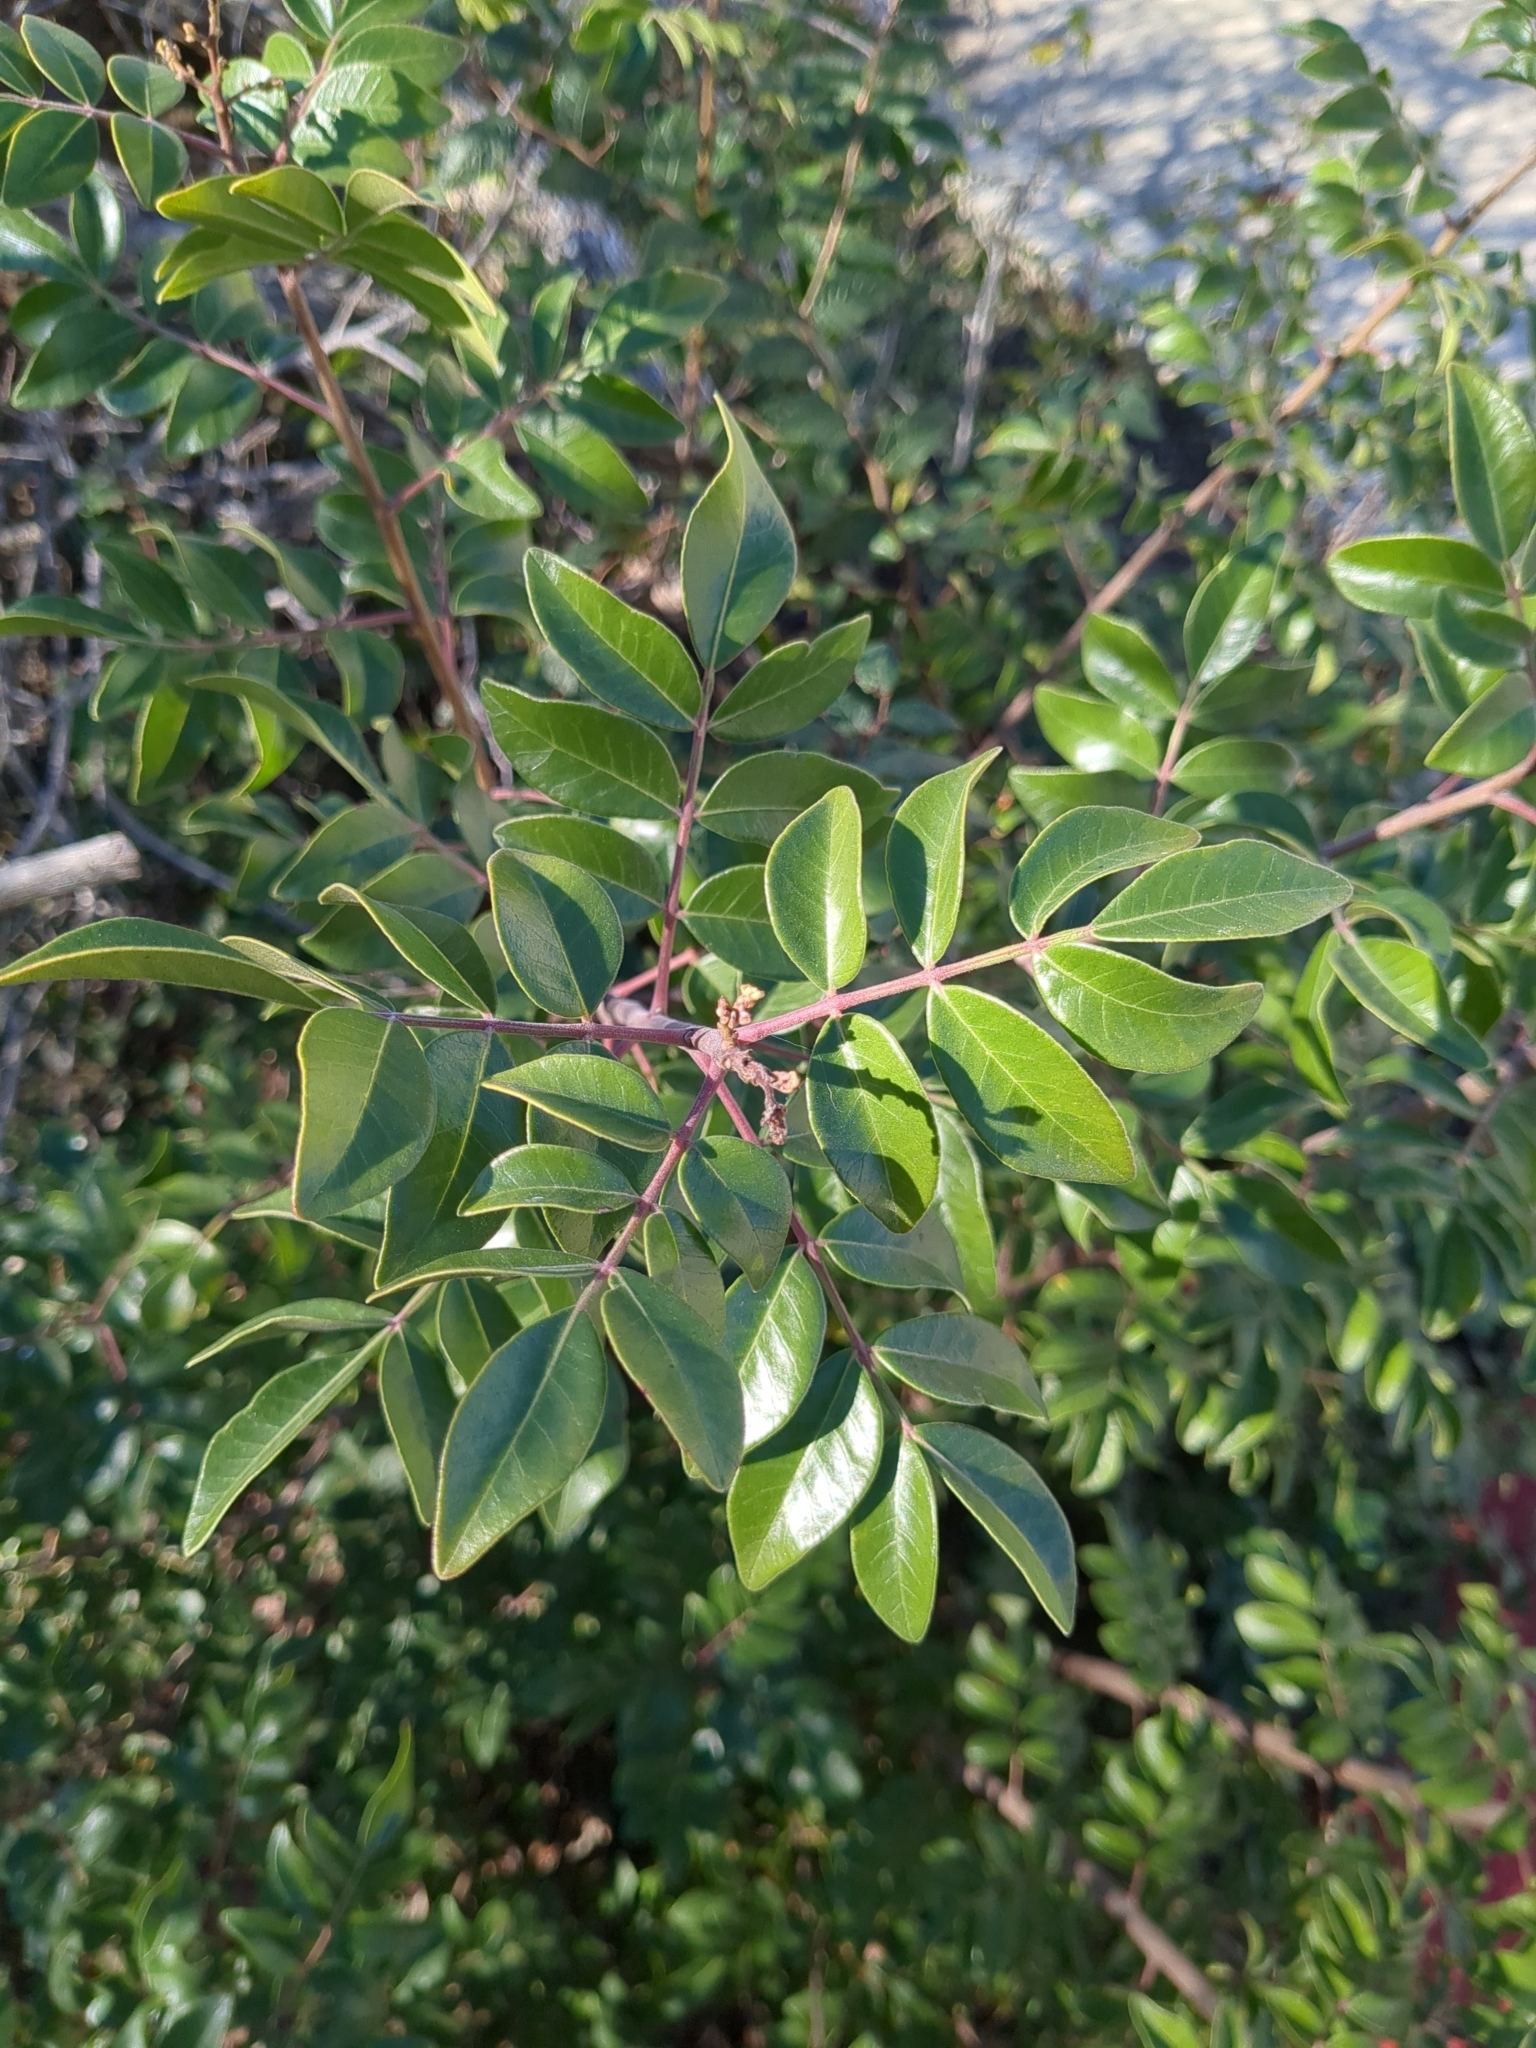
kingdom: Plantae
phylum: Tracheophyta
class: Magnoliopsida
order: Sapindales
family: Anacardiaceae
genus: Rhus
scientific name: Rhus virens
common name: Evergreen sumac
